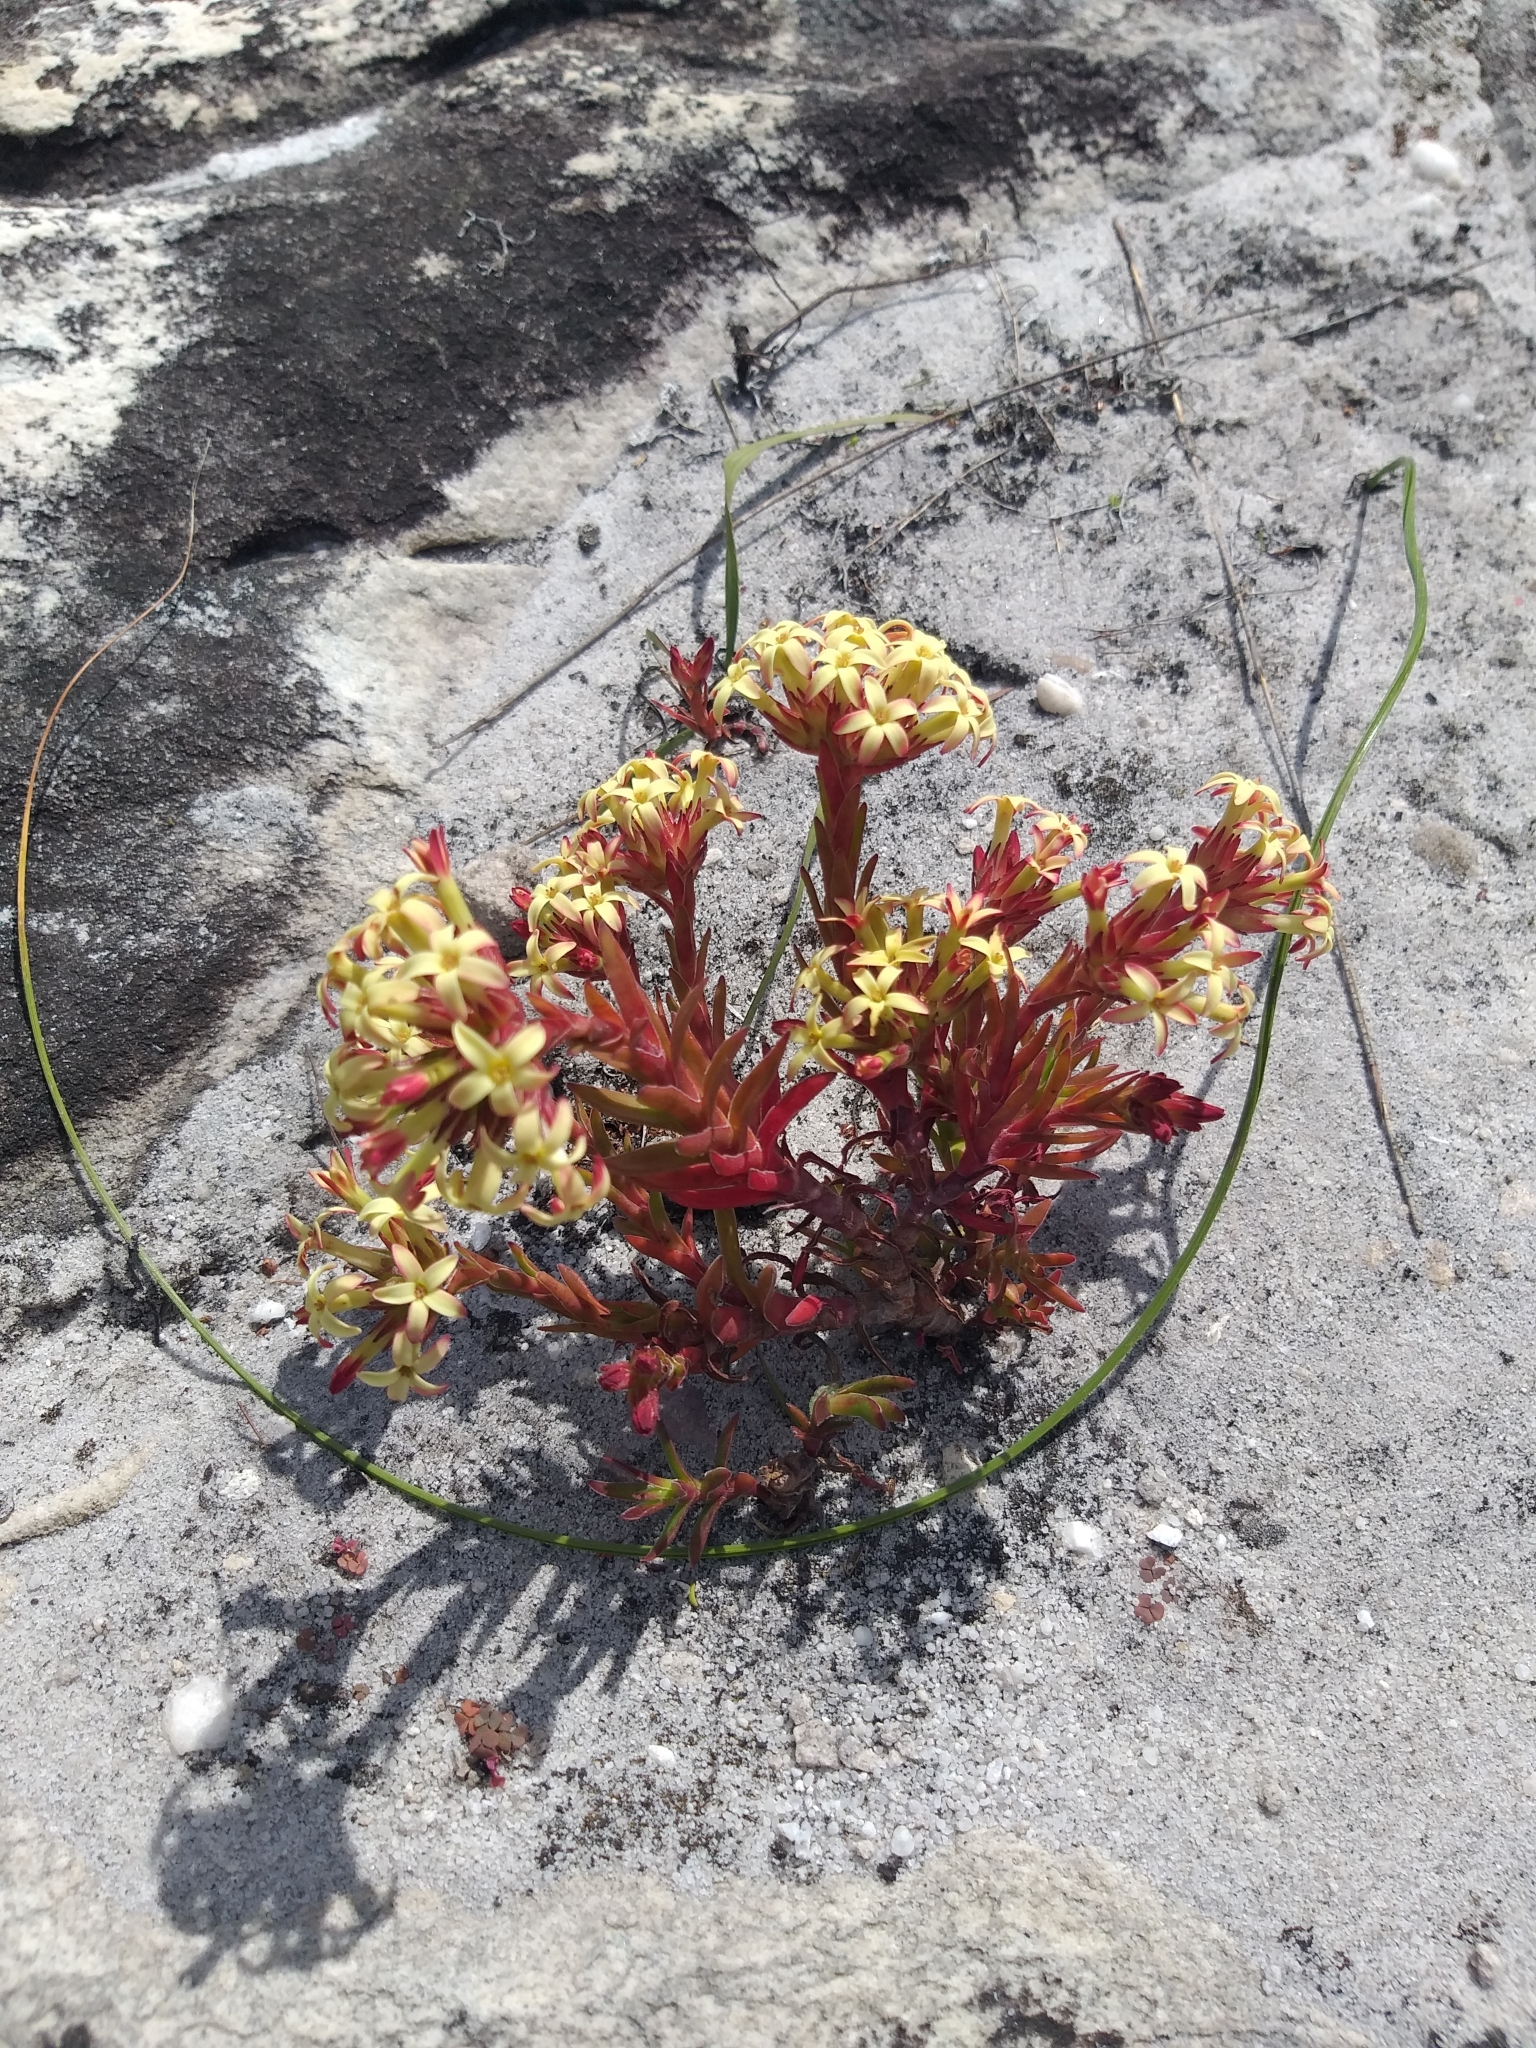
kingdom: Plantae
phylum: Tracheophyta
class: Magnoliopsida
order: Saxifragales
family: Crassulaceae
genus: Crassula
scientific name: Crassula fascicularis
